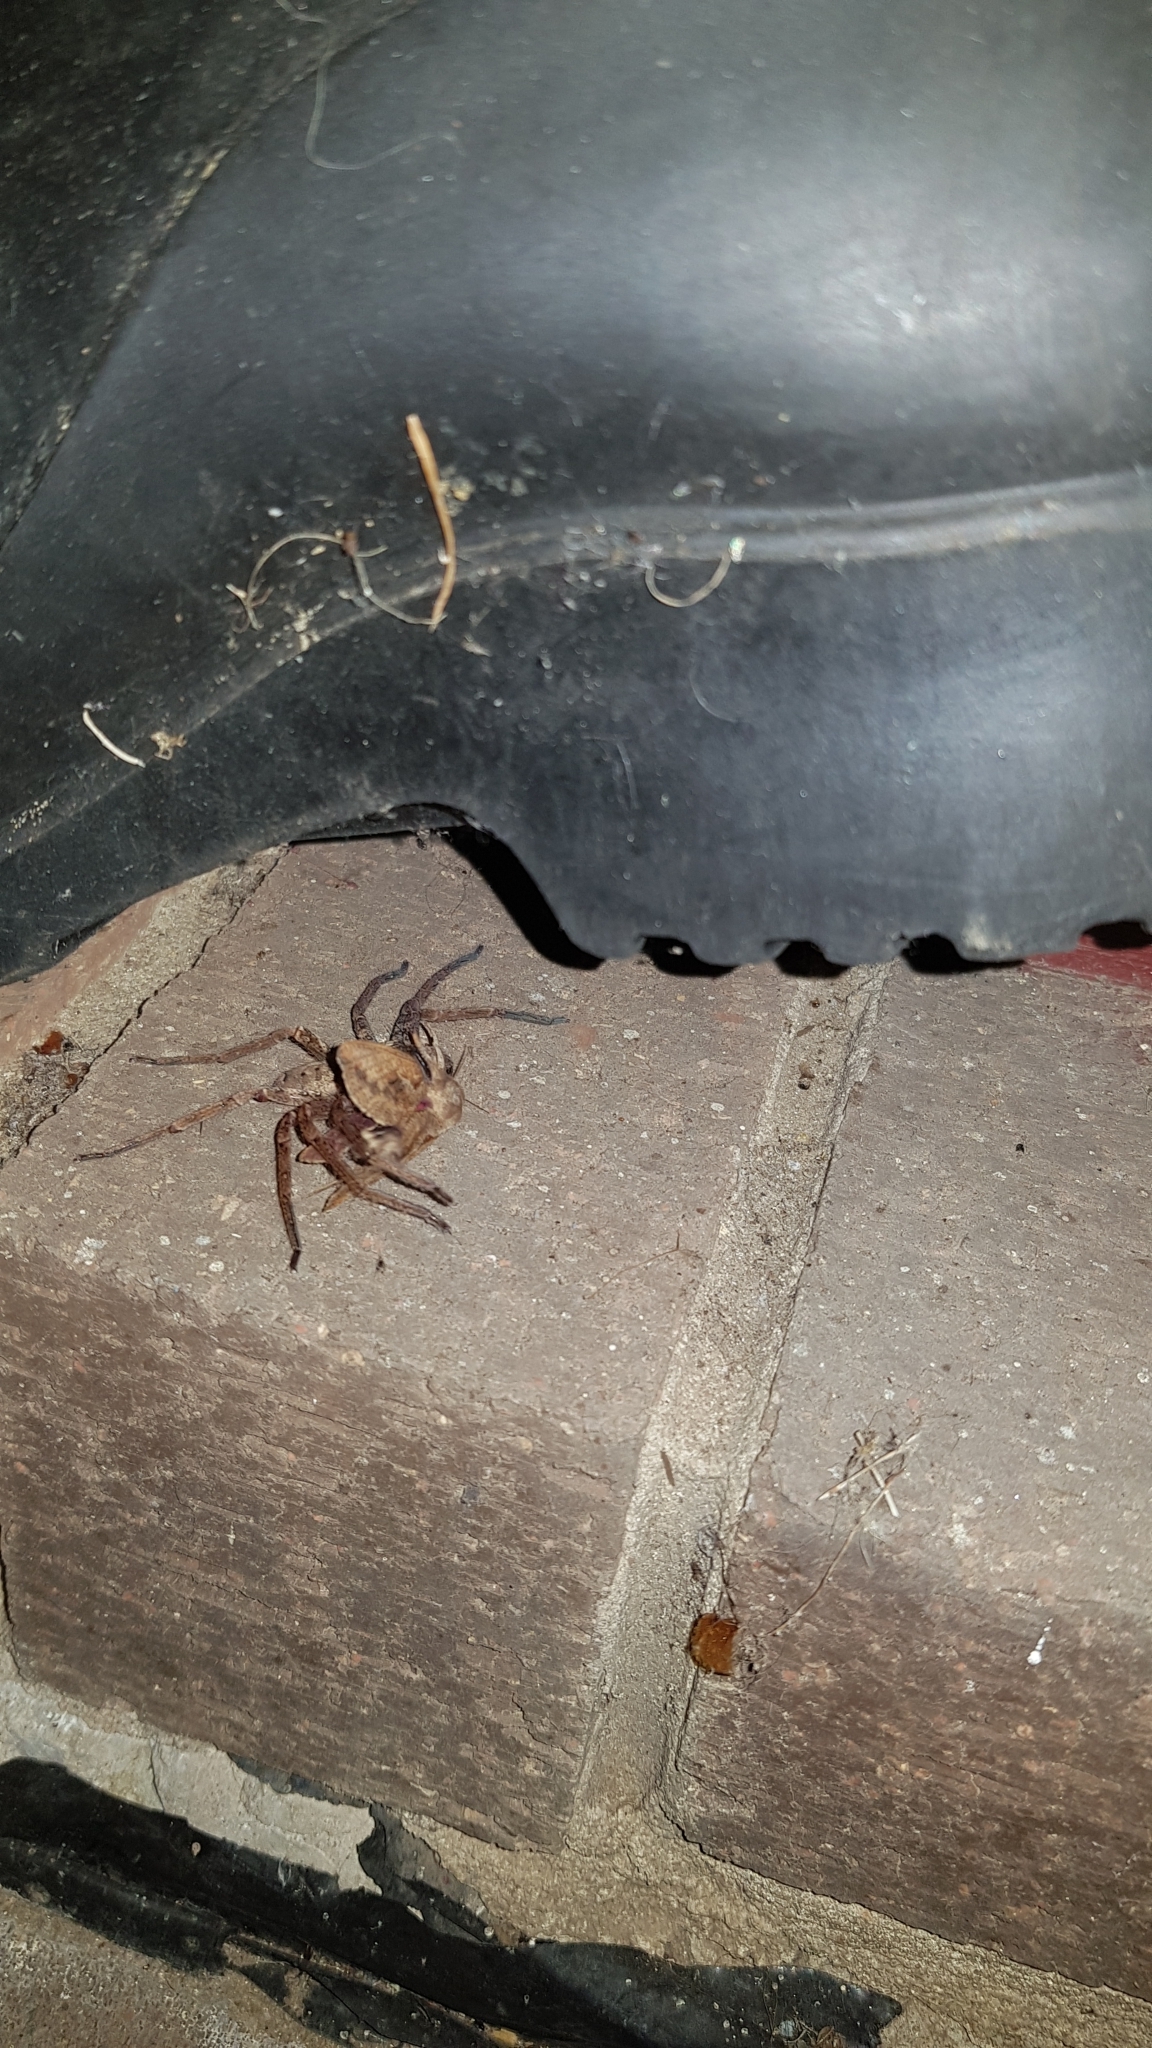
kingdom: Animalia
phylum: Arthropoda
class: Arachnida
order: Araneae
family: Sparassidae
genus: Heteropoda
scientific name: Heteropoda jugulans
